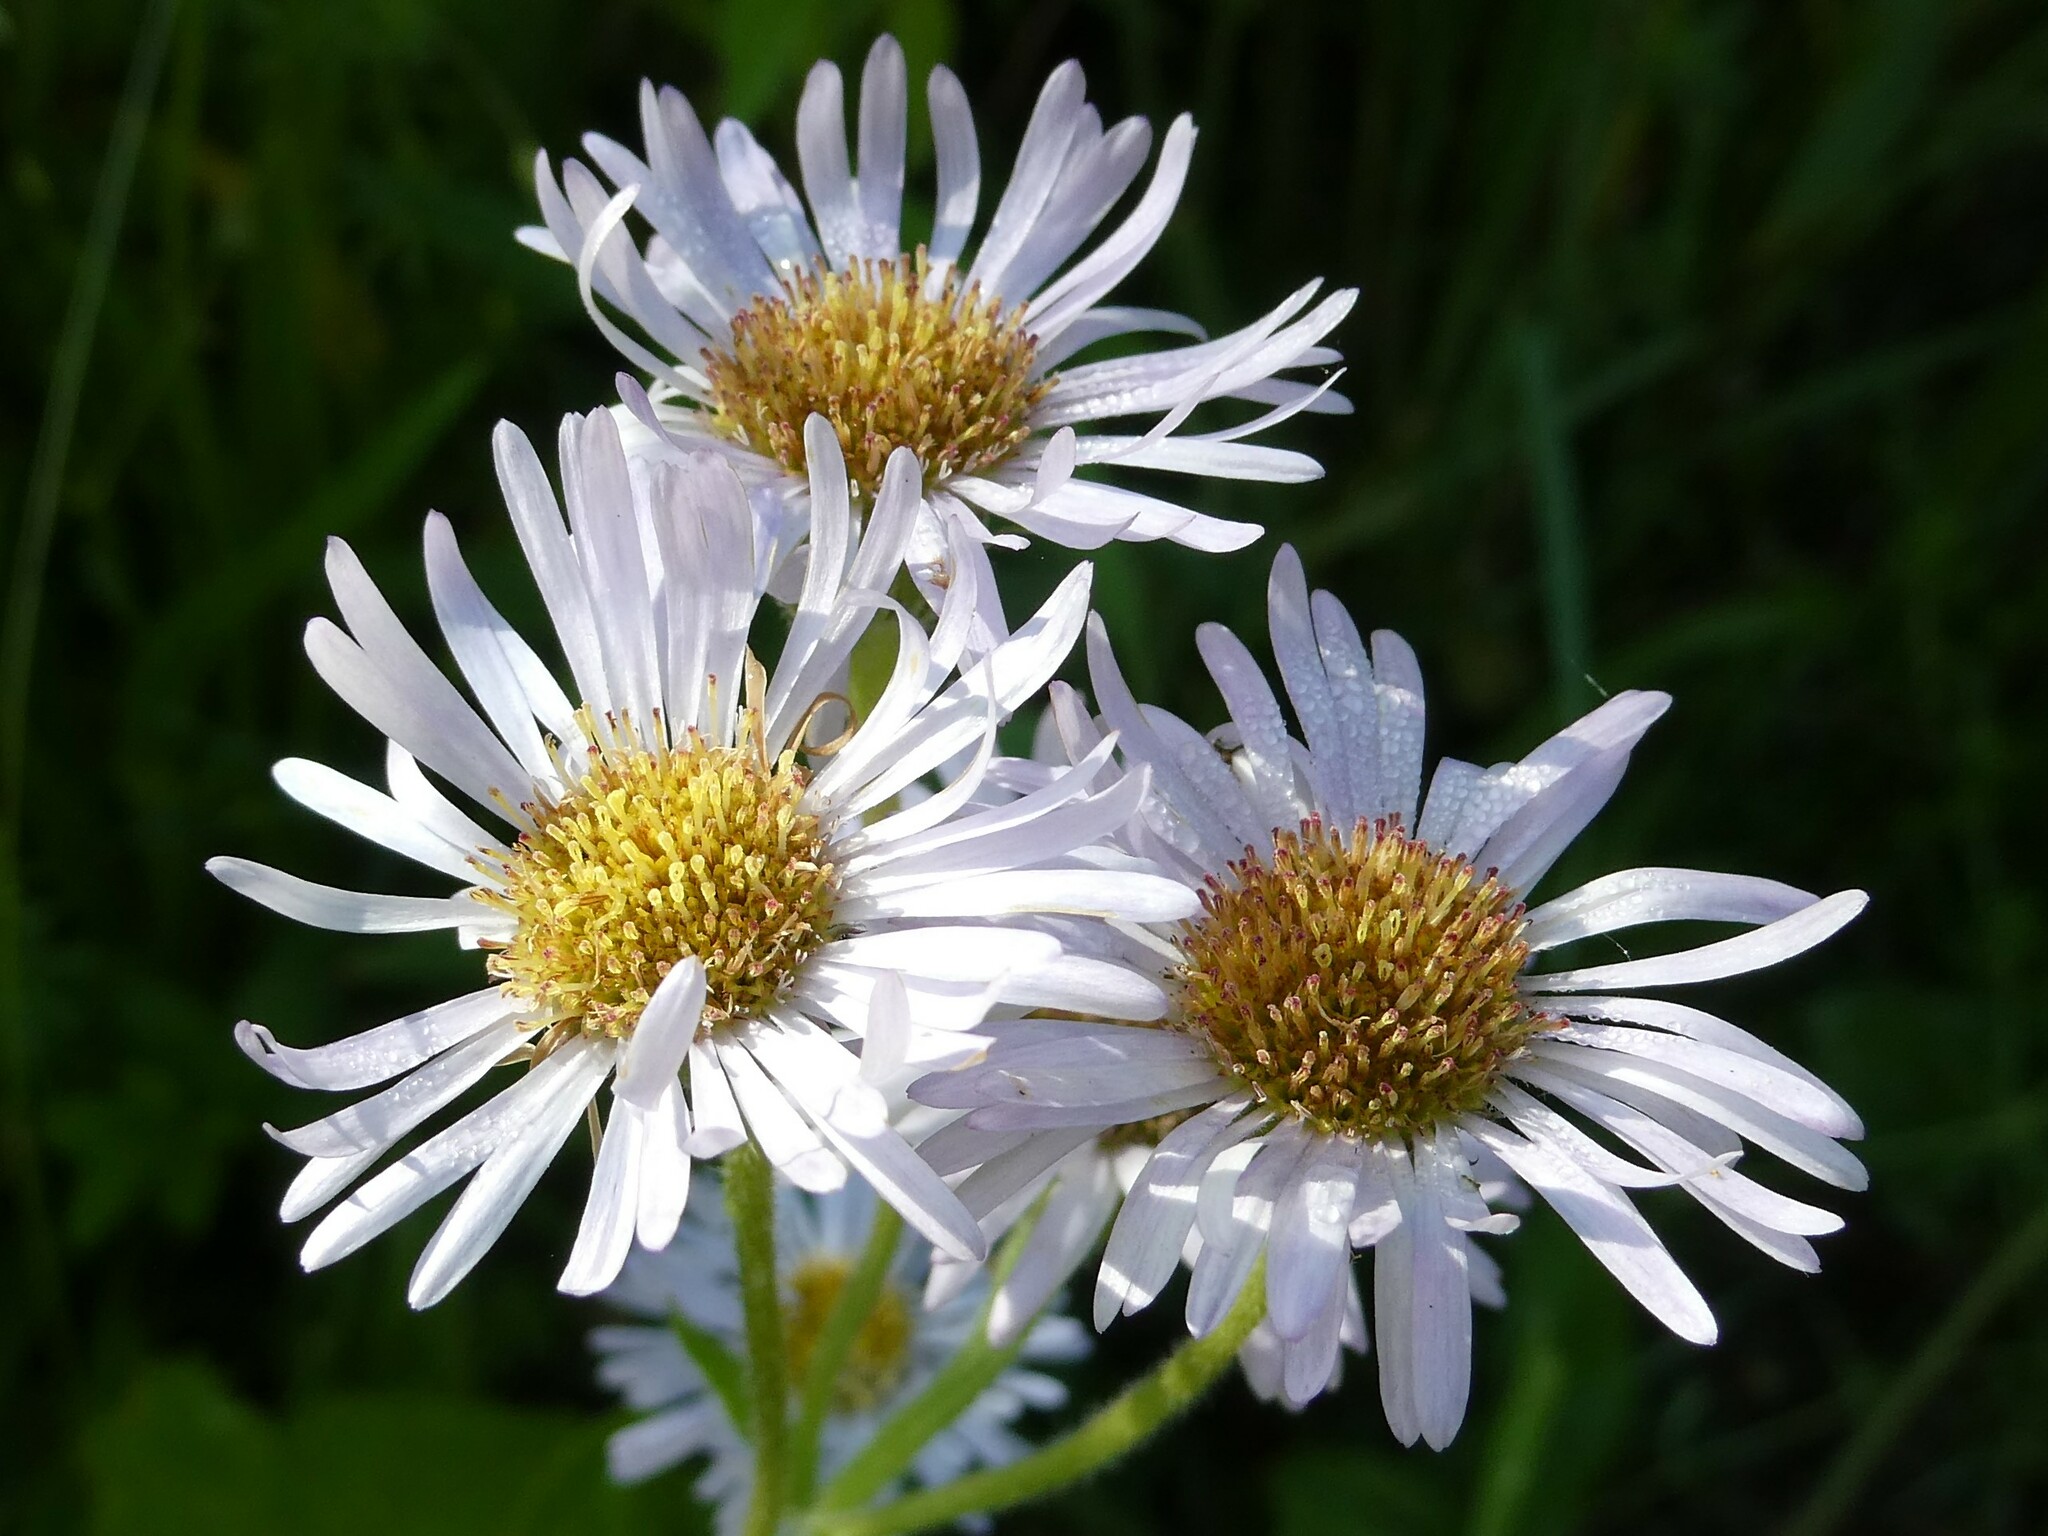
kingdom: Plantae
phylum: Tracheophyta
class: Magnoliopsida
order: Asterales
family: Asteraceae
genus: Erigeron
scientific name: Erigeron pulchellus
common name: Hairy fleabane
